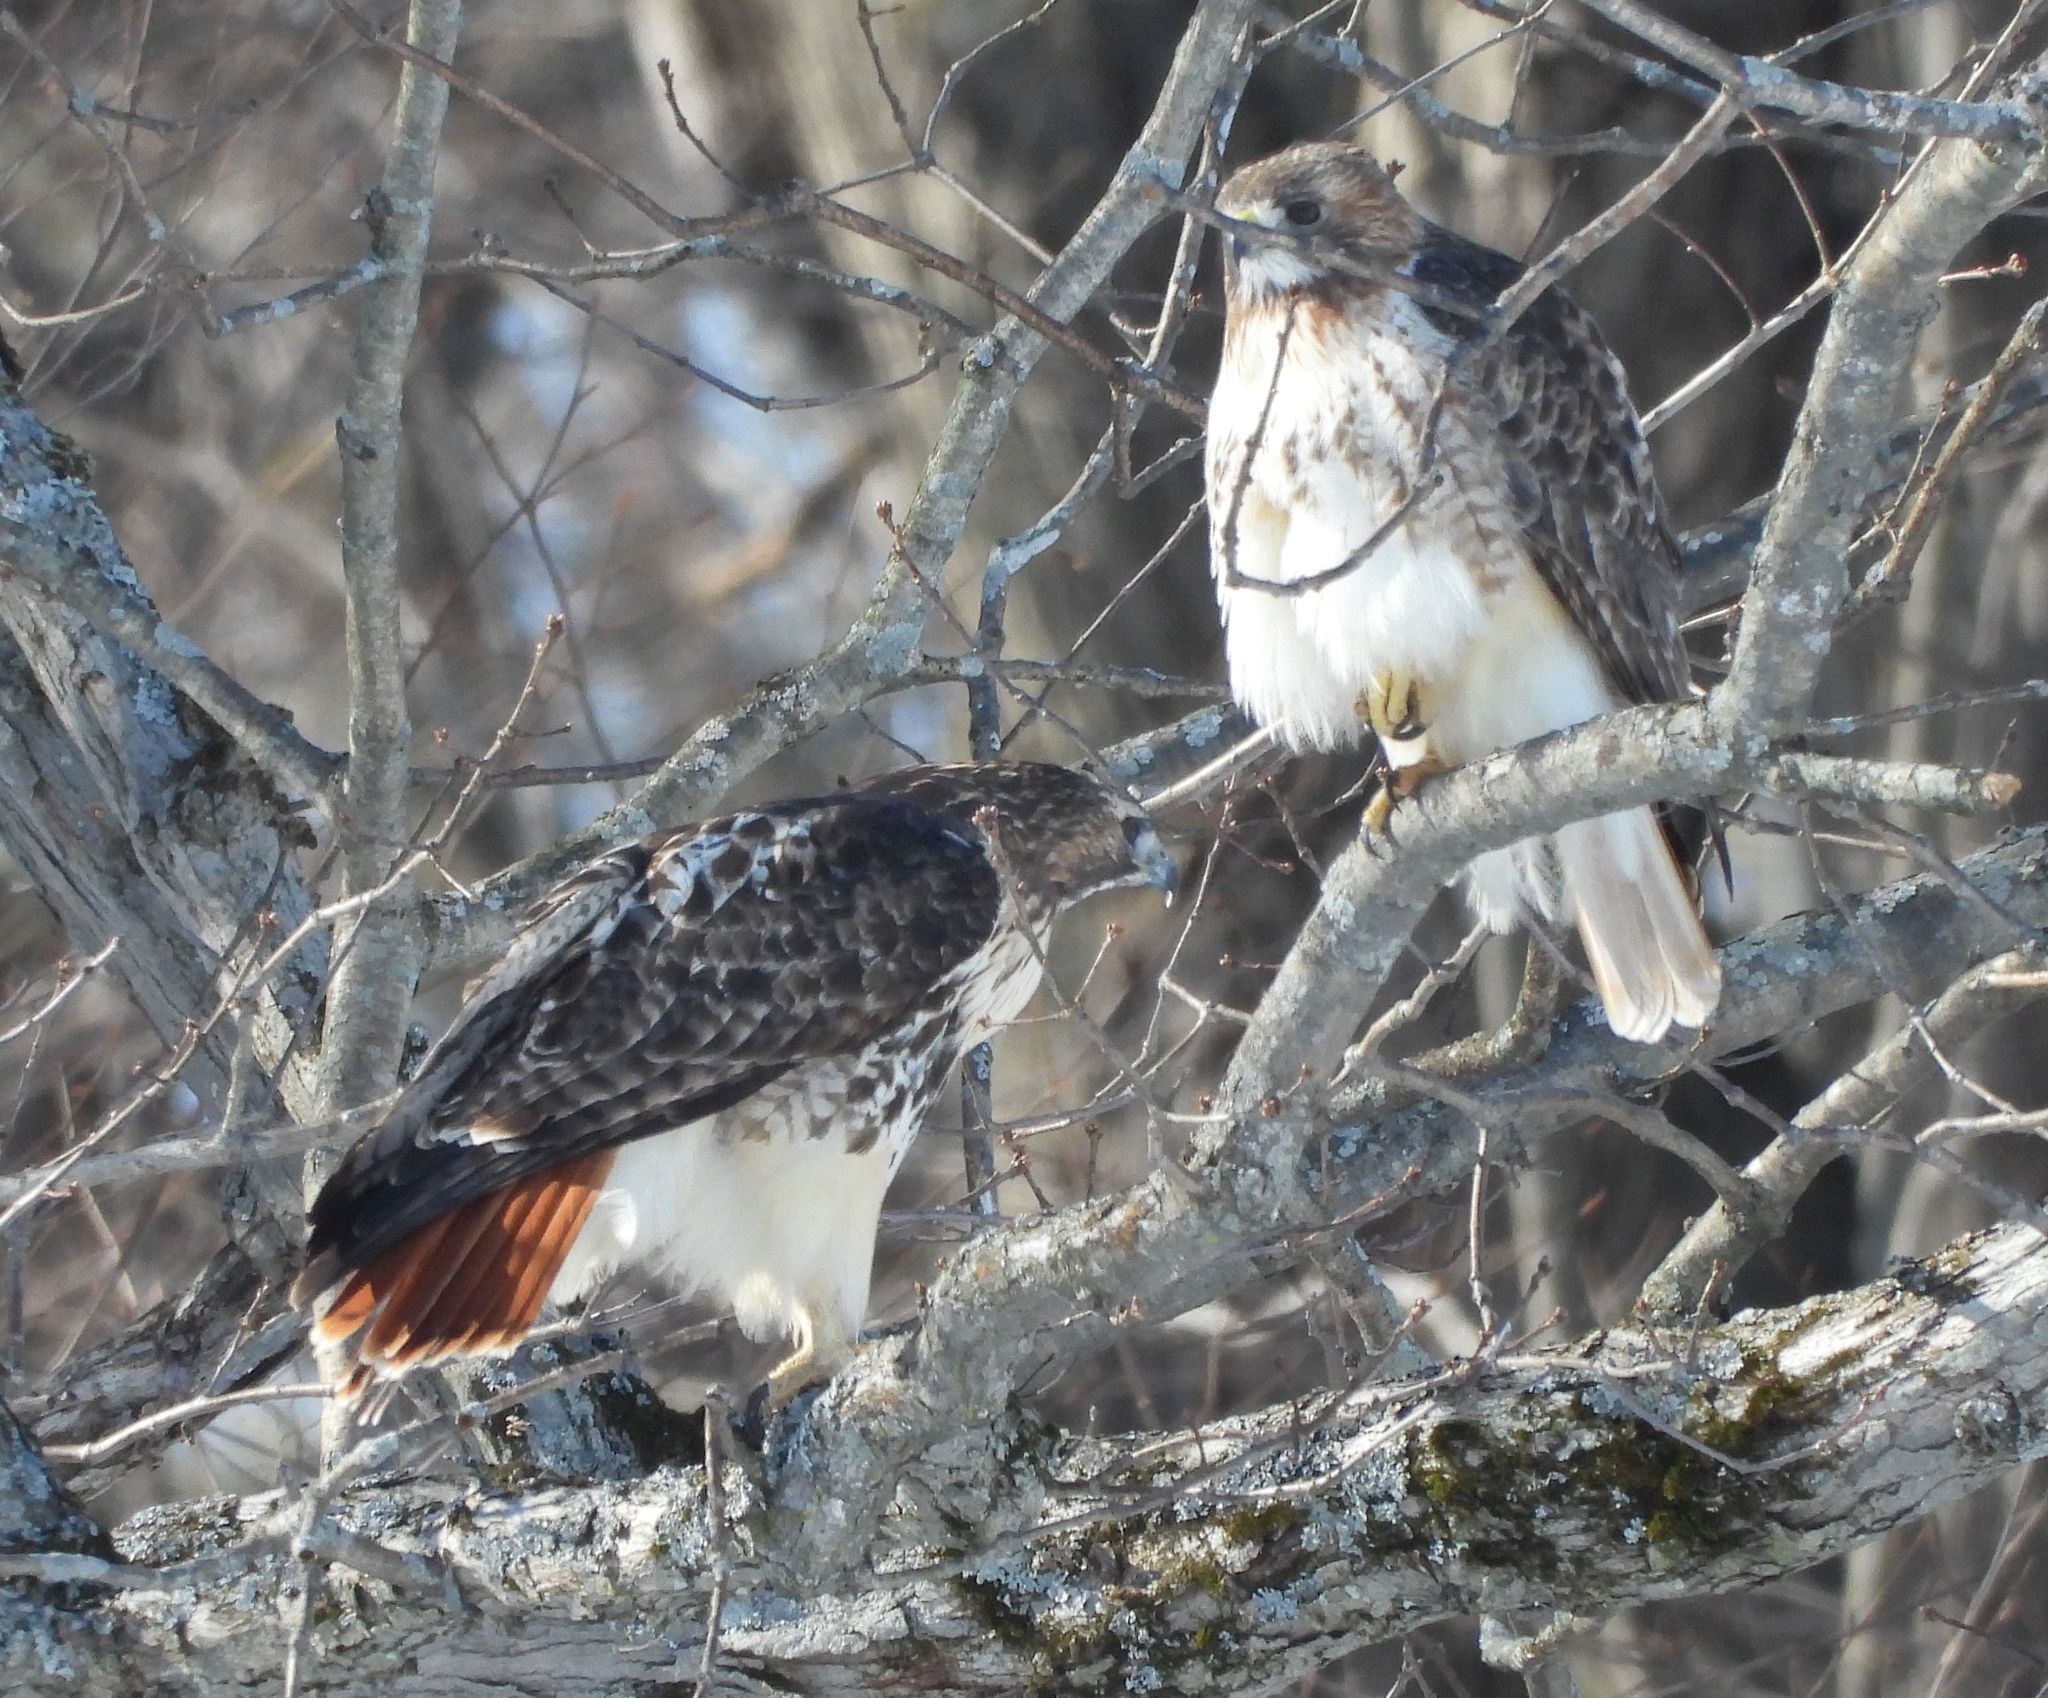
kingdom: Animalia
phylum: Chordata
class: Aves
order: Accipitriformes
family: Accipitridae
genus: Buteo
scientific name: Buteo jamaicensis
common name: Red-tailed hawk
